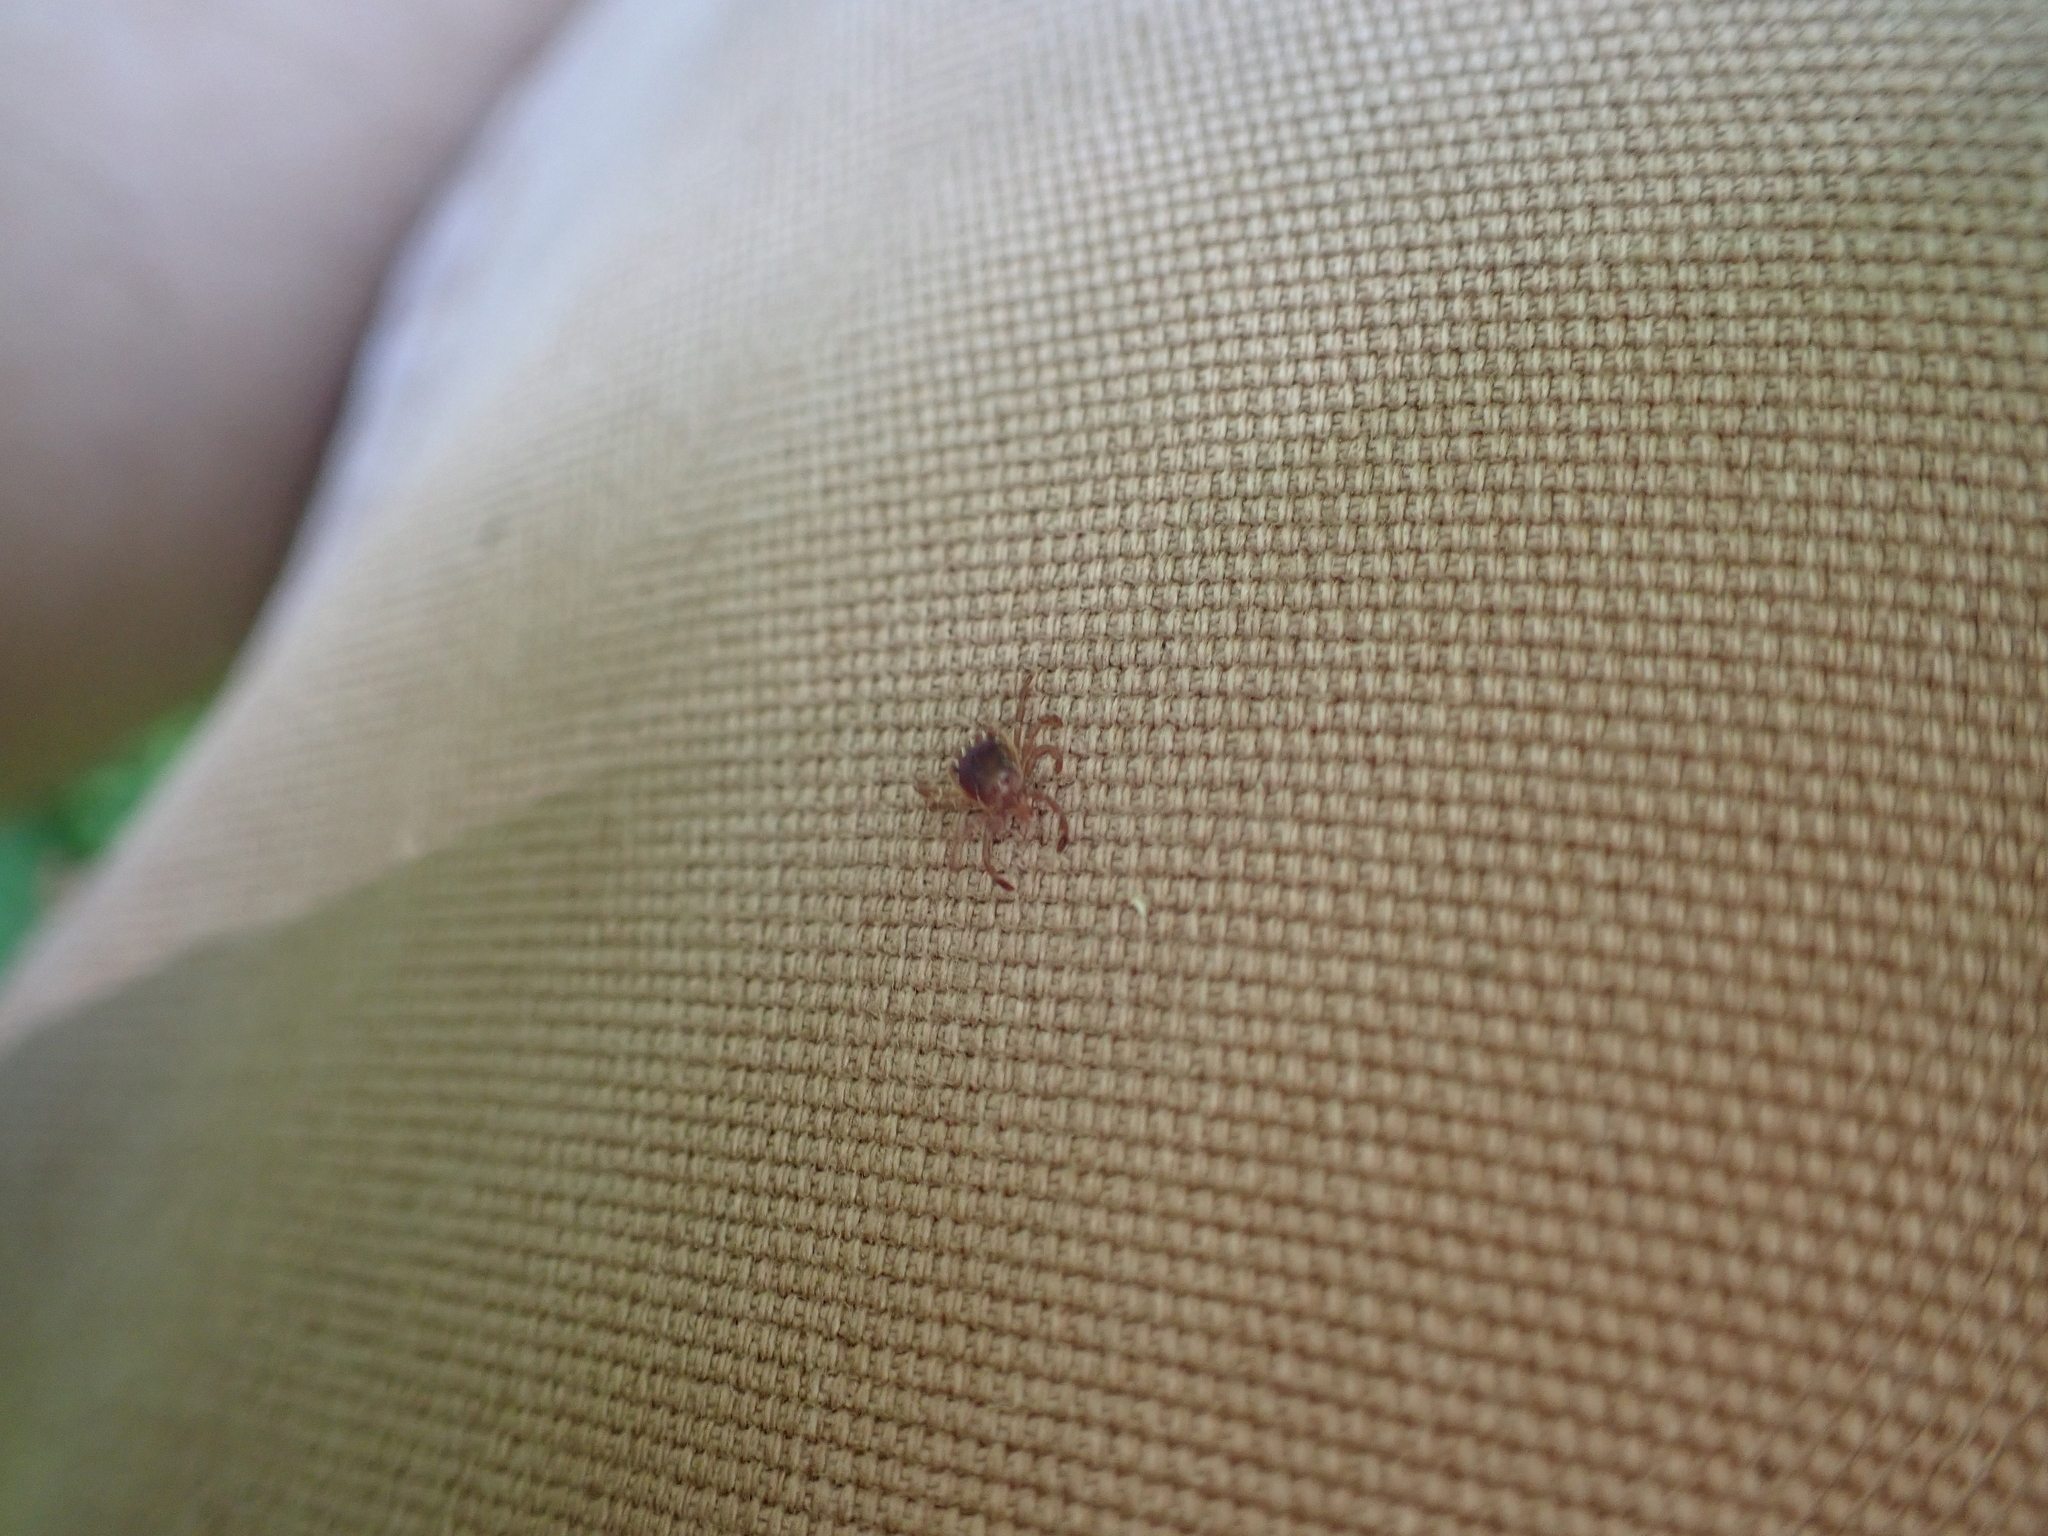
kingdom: Animalia
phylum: Arthropoda
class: Arachnida
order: Ixodida
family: Ixodidae
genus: Amblyomma
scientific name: Amblyomma americanum
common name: Lone star tick
